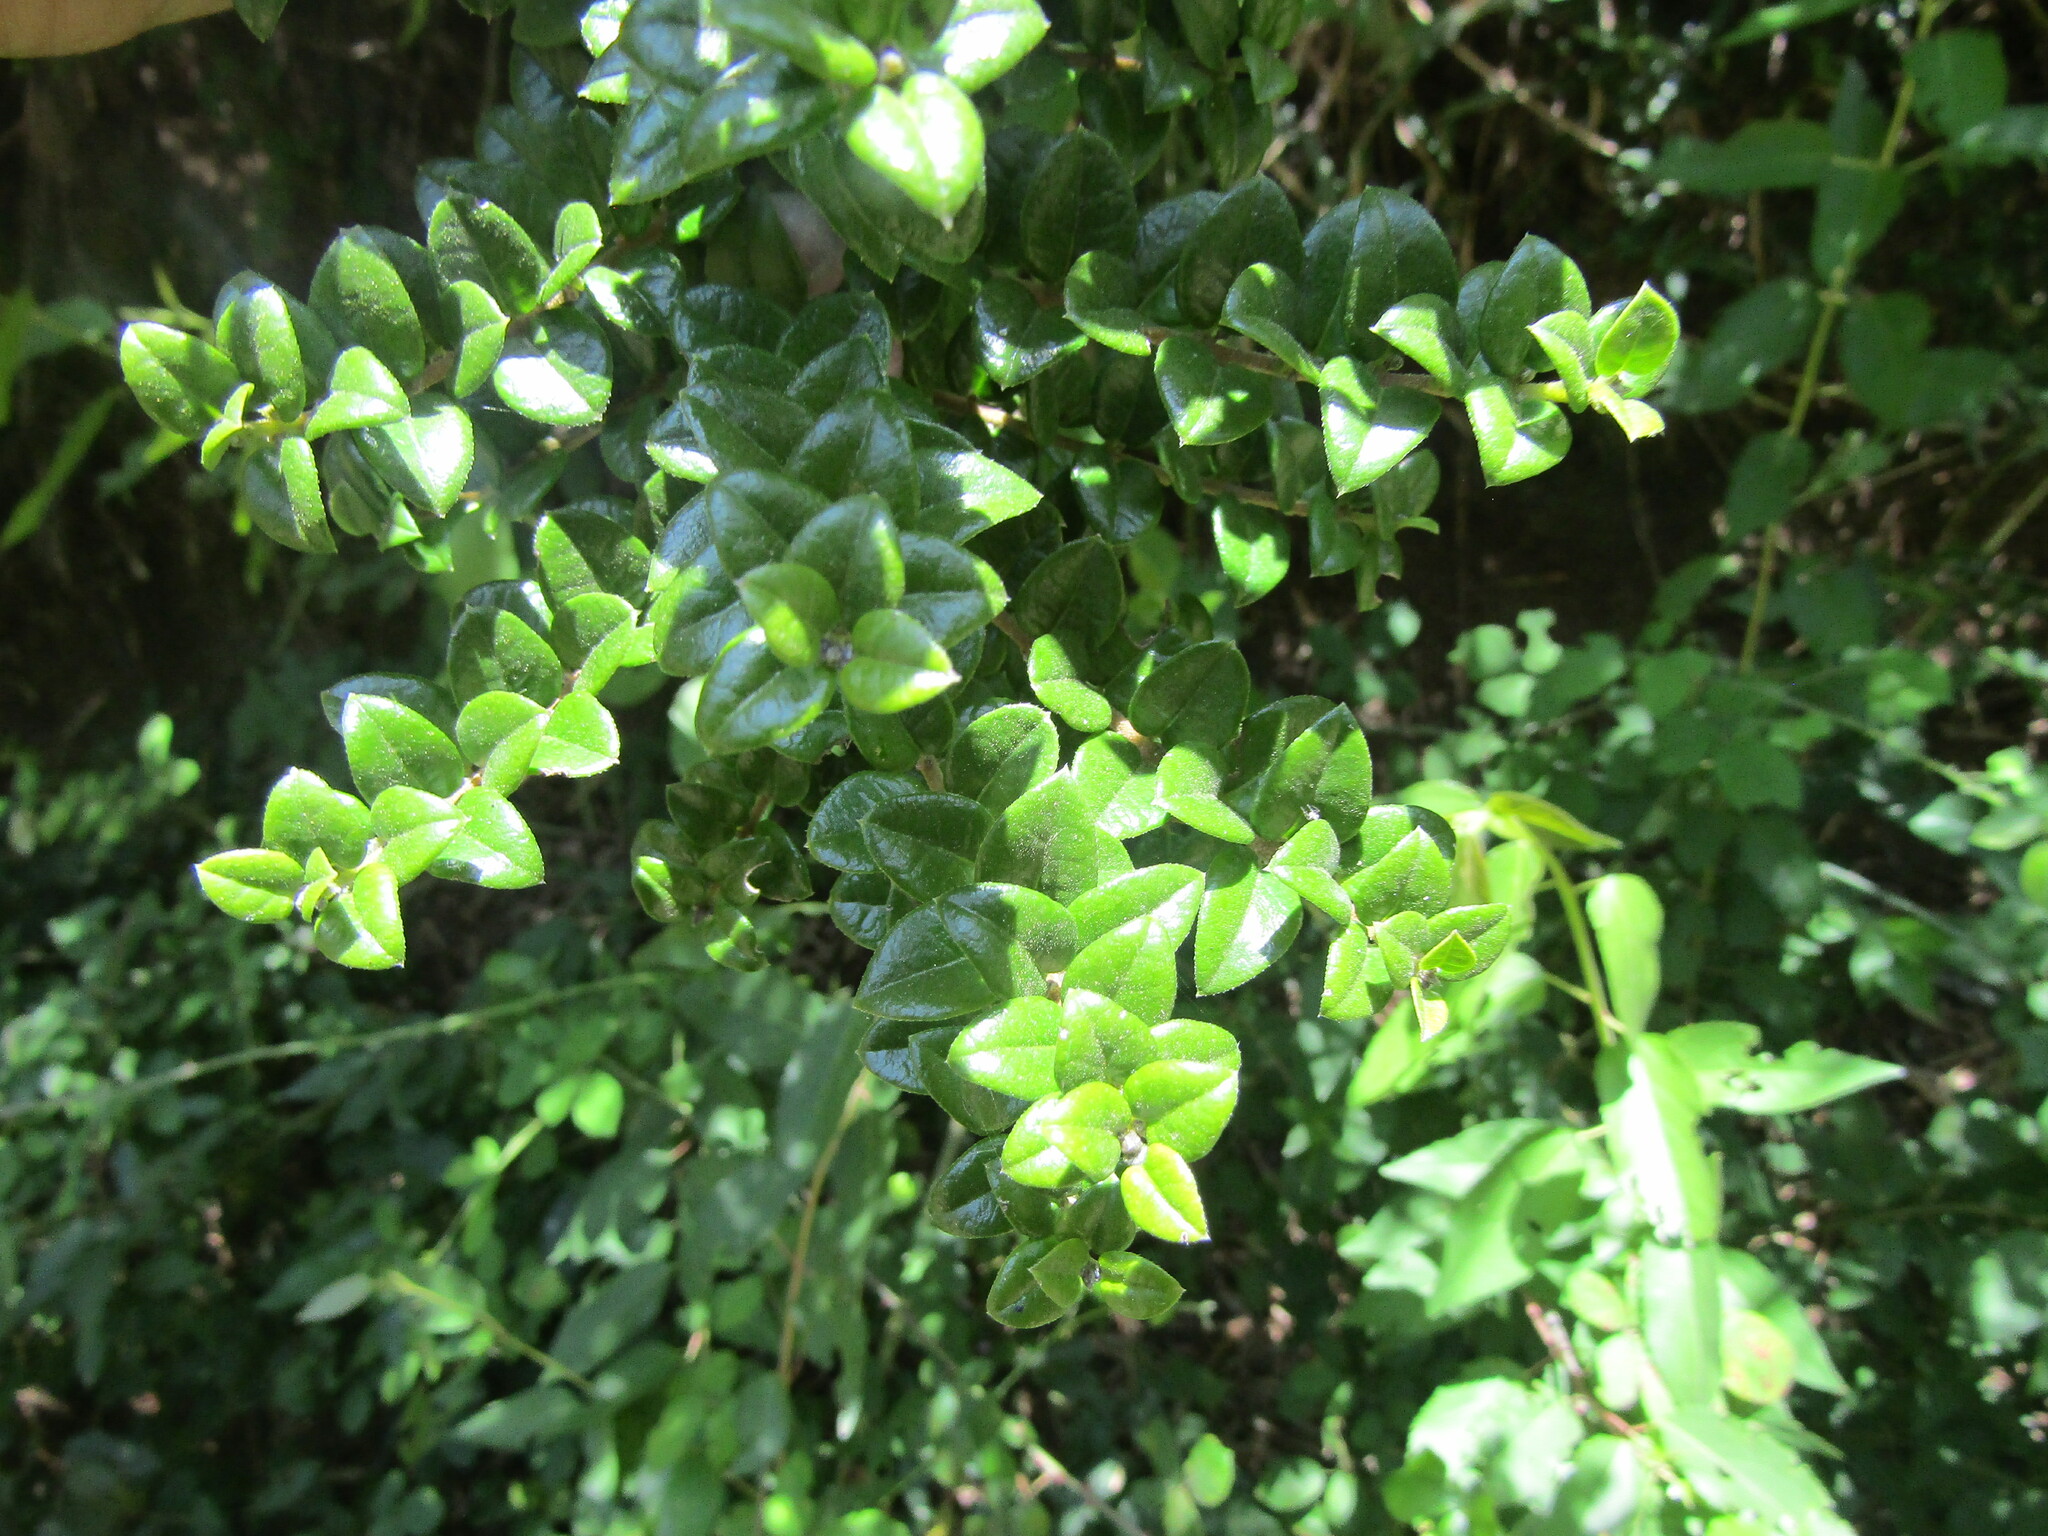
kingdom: Plantae
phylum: Tracheophyta
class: Magnoliopsida
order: Lamiales
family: Verbenaceae
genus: Rhaphithamnus
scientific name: Rhaphithamnus spinosus
